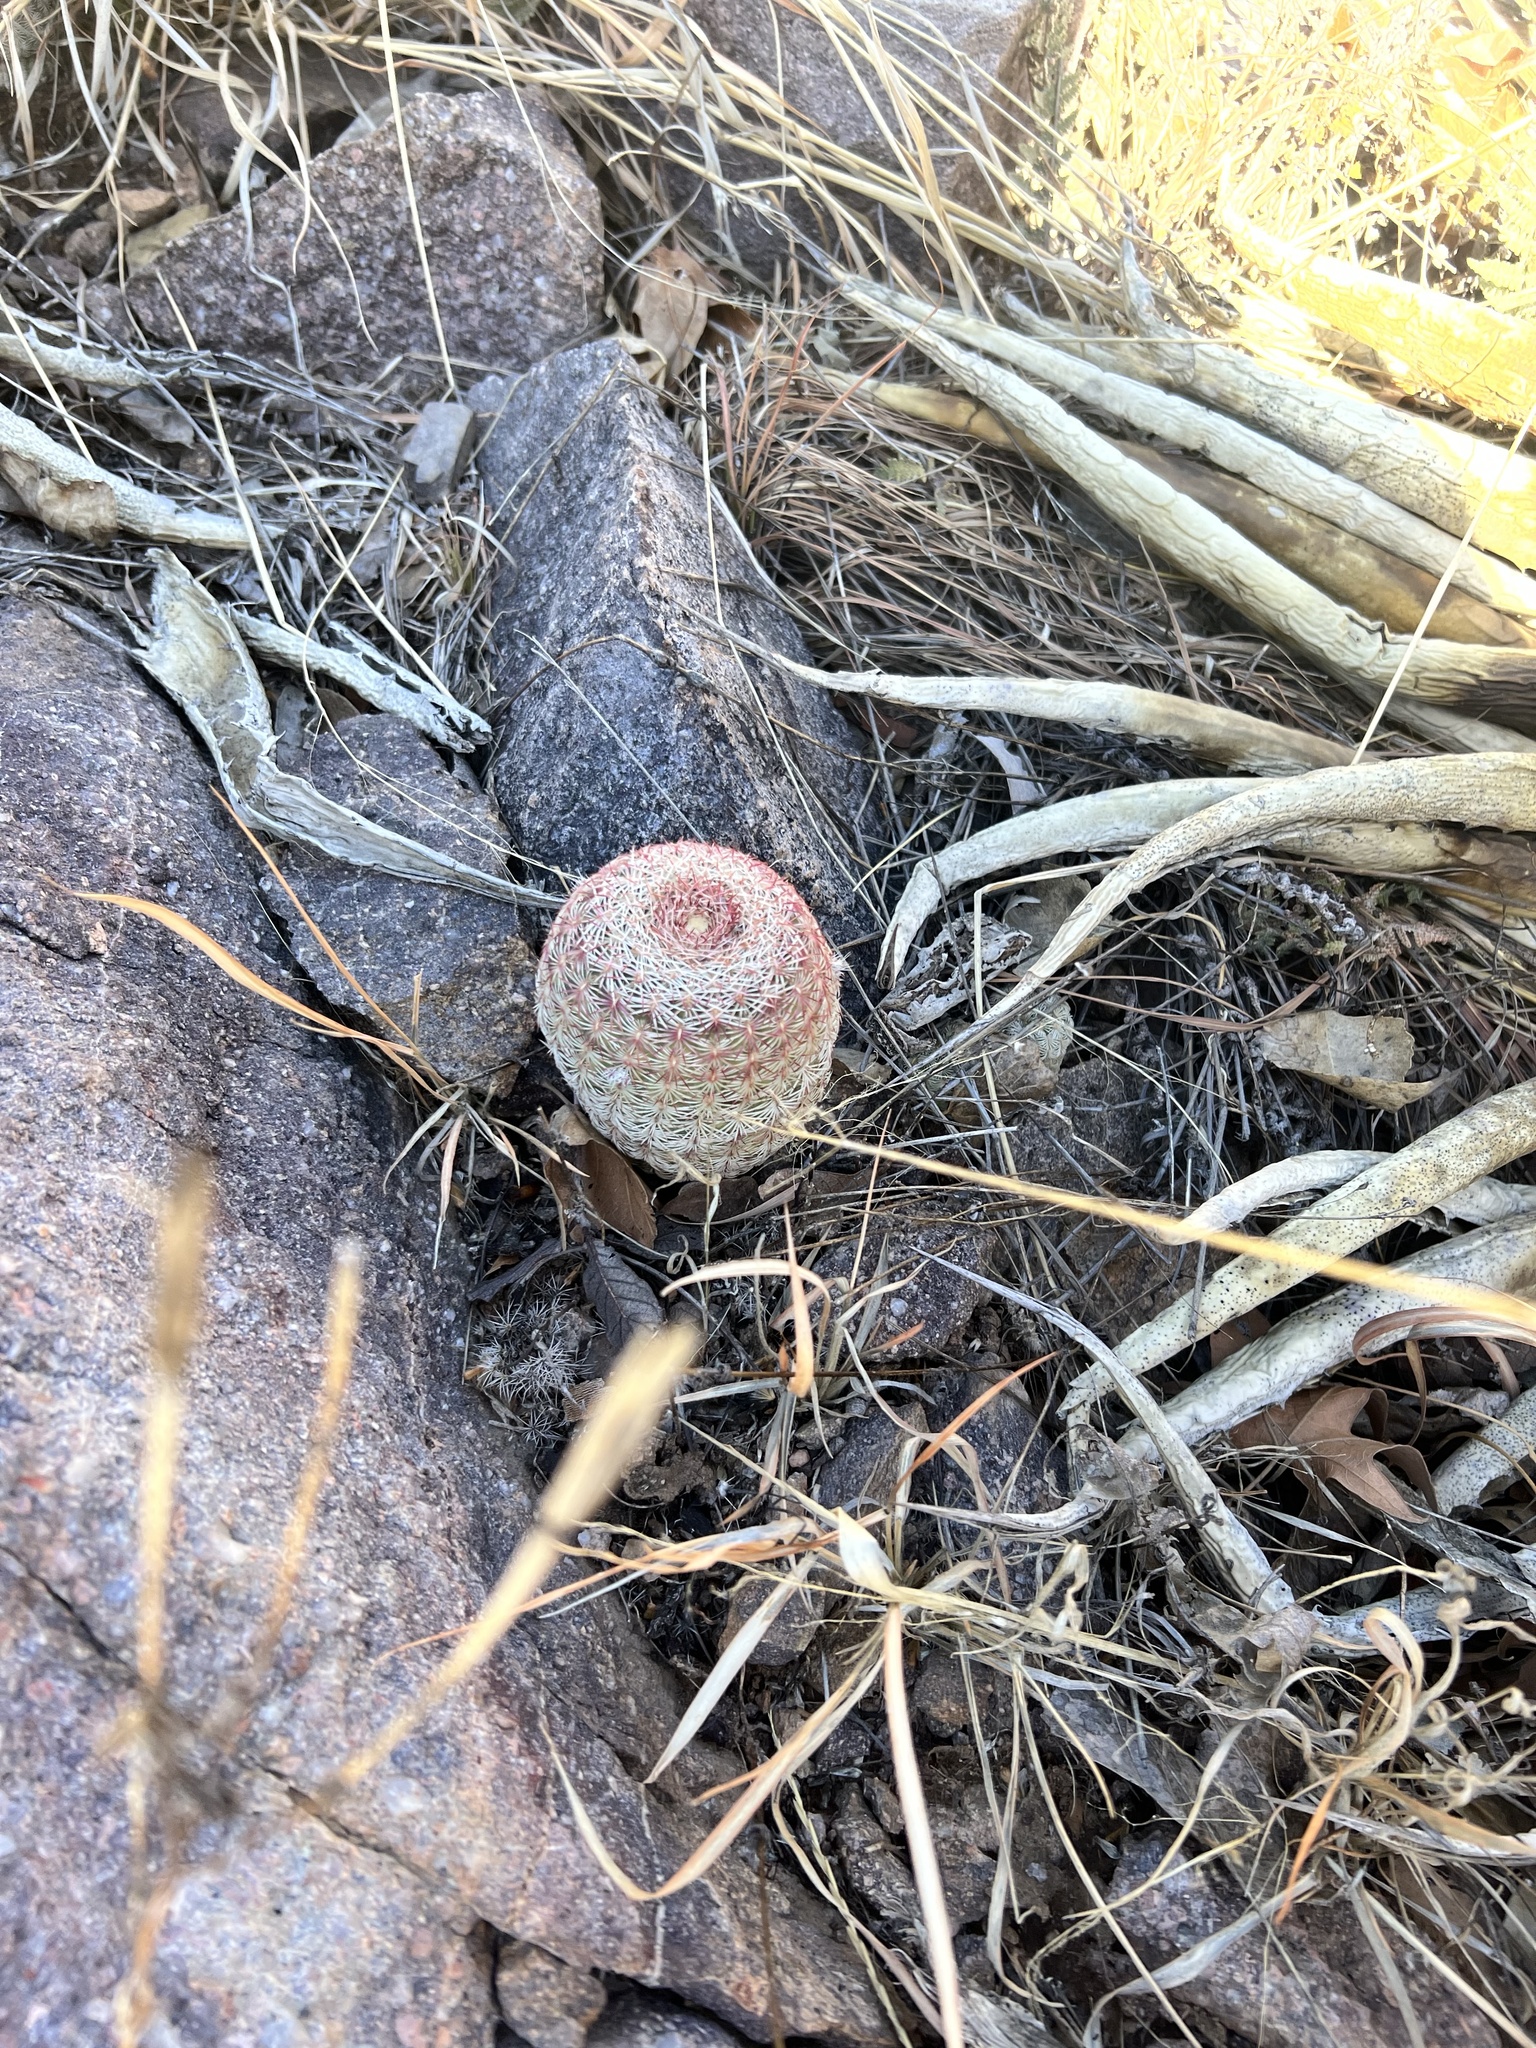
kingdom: Plantae
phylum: Tracheophyta
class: Magnoliopsida
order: Caryophyllales
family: Cactaceae
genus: Echinocereus
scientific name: Echinocereus rigidissimus
